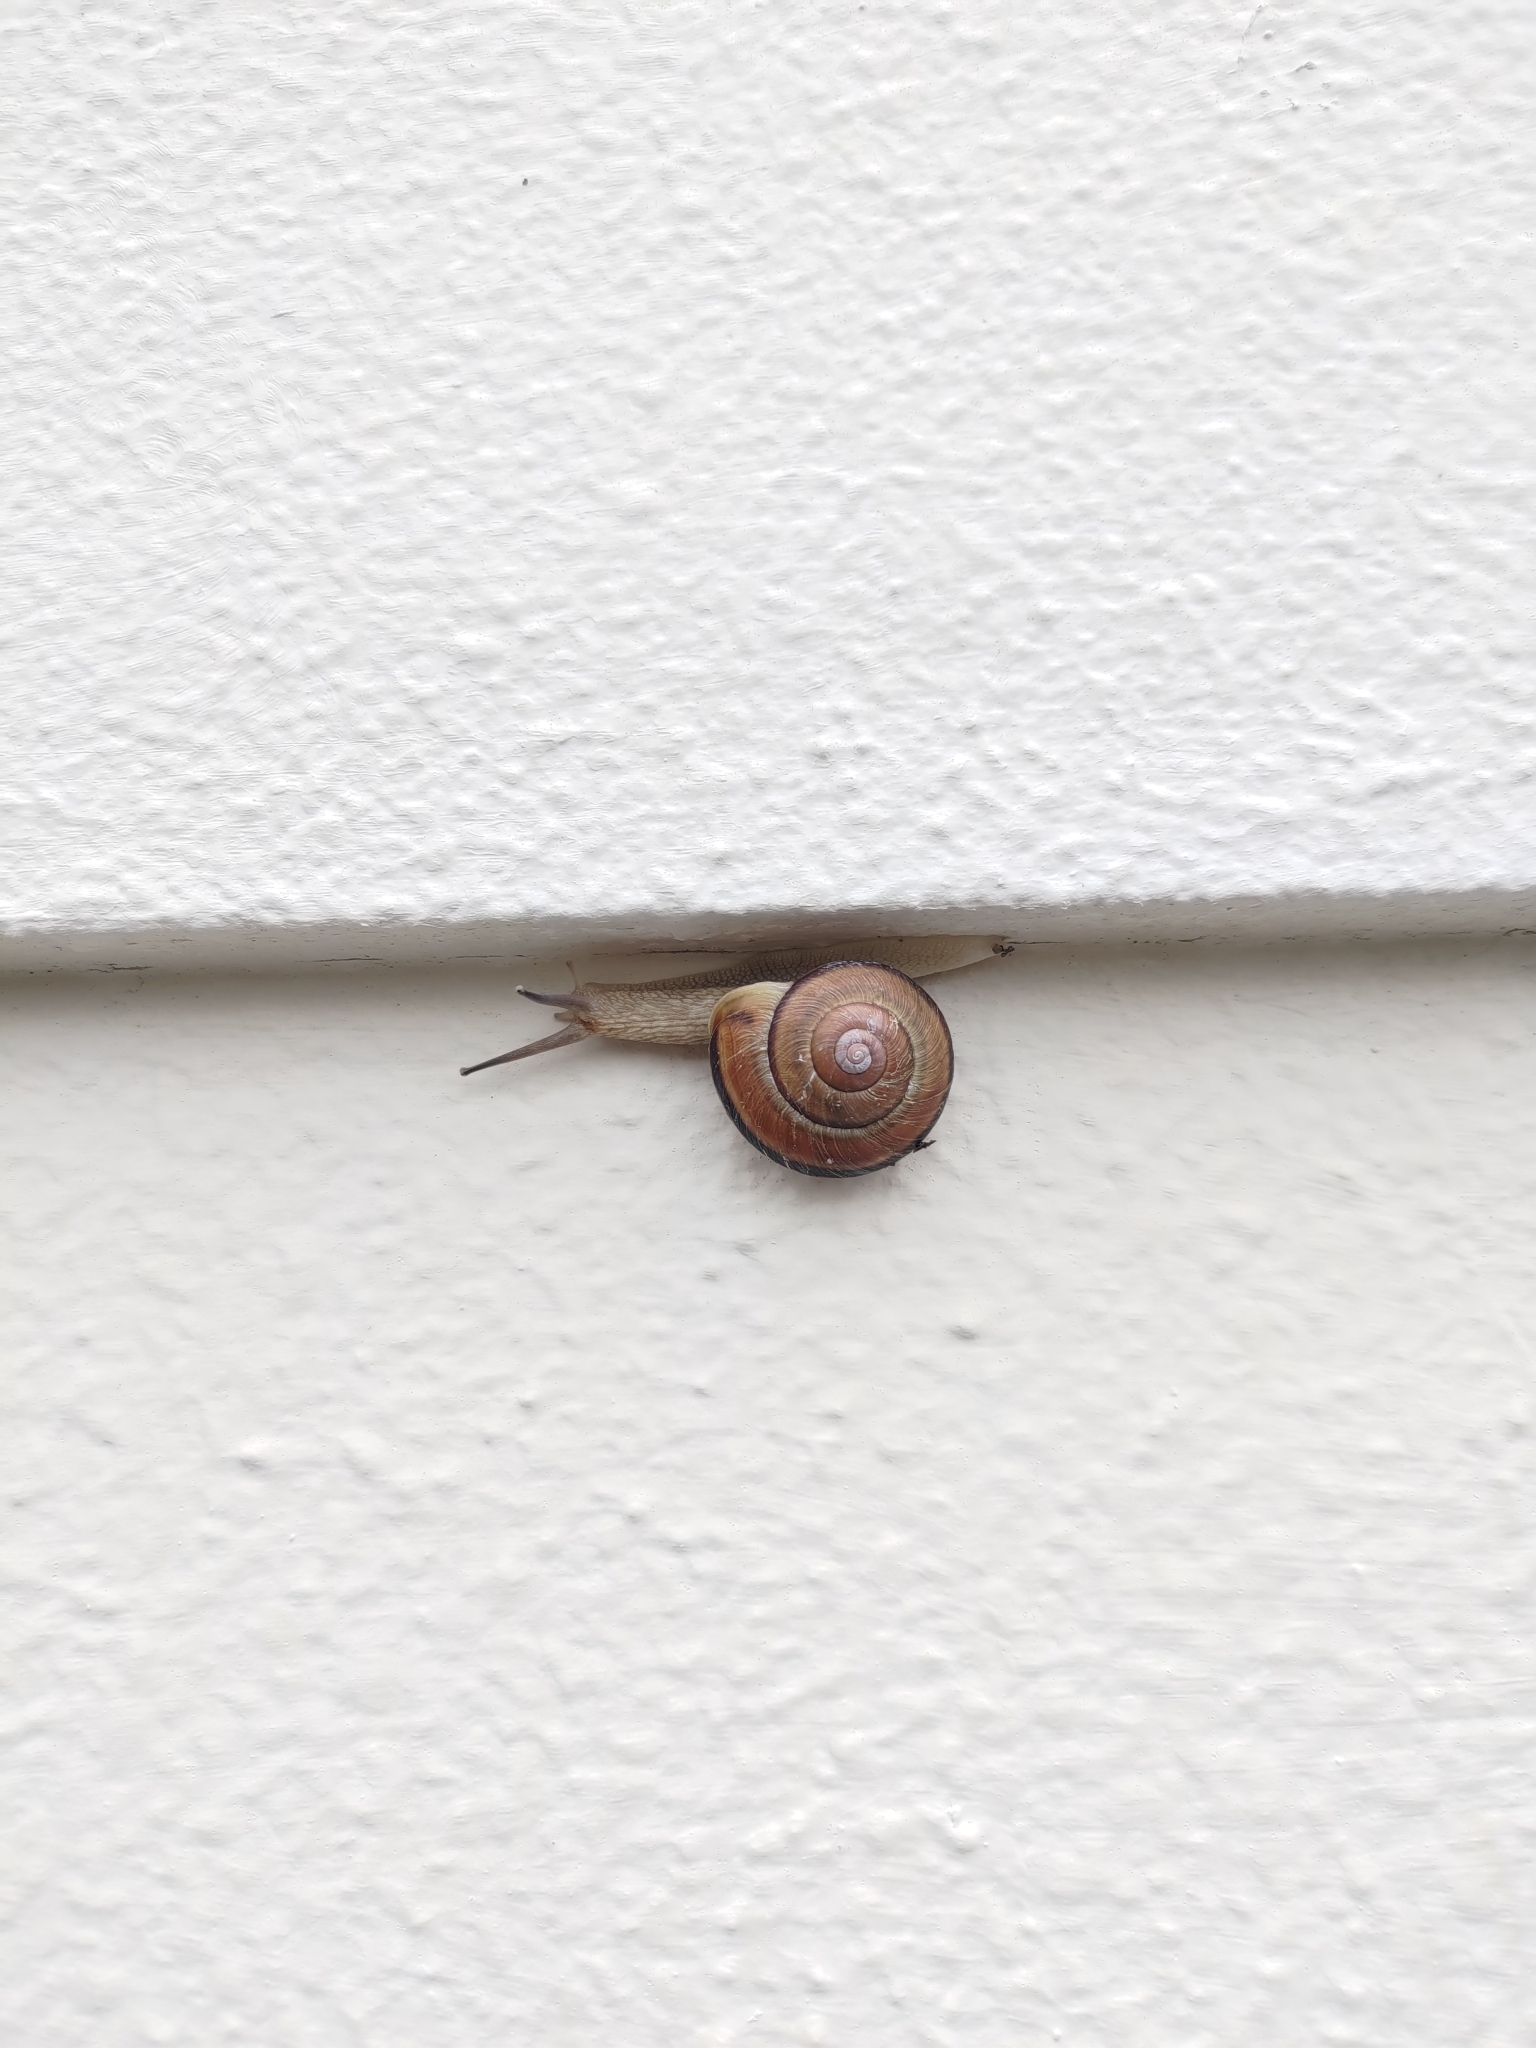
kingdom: Animalia
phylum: Mollusca
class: Gastropoda
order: Stylommatophora
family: Camaenidae
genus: Euhadra
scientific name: Euhadra herklotsi
